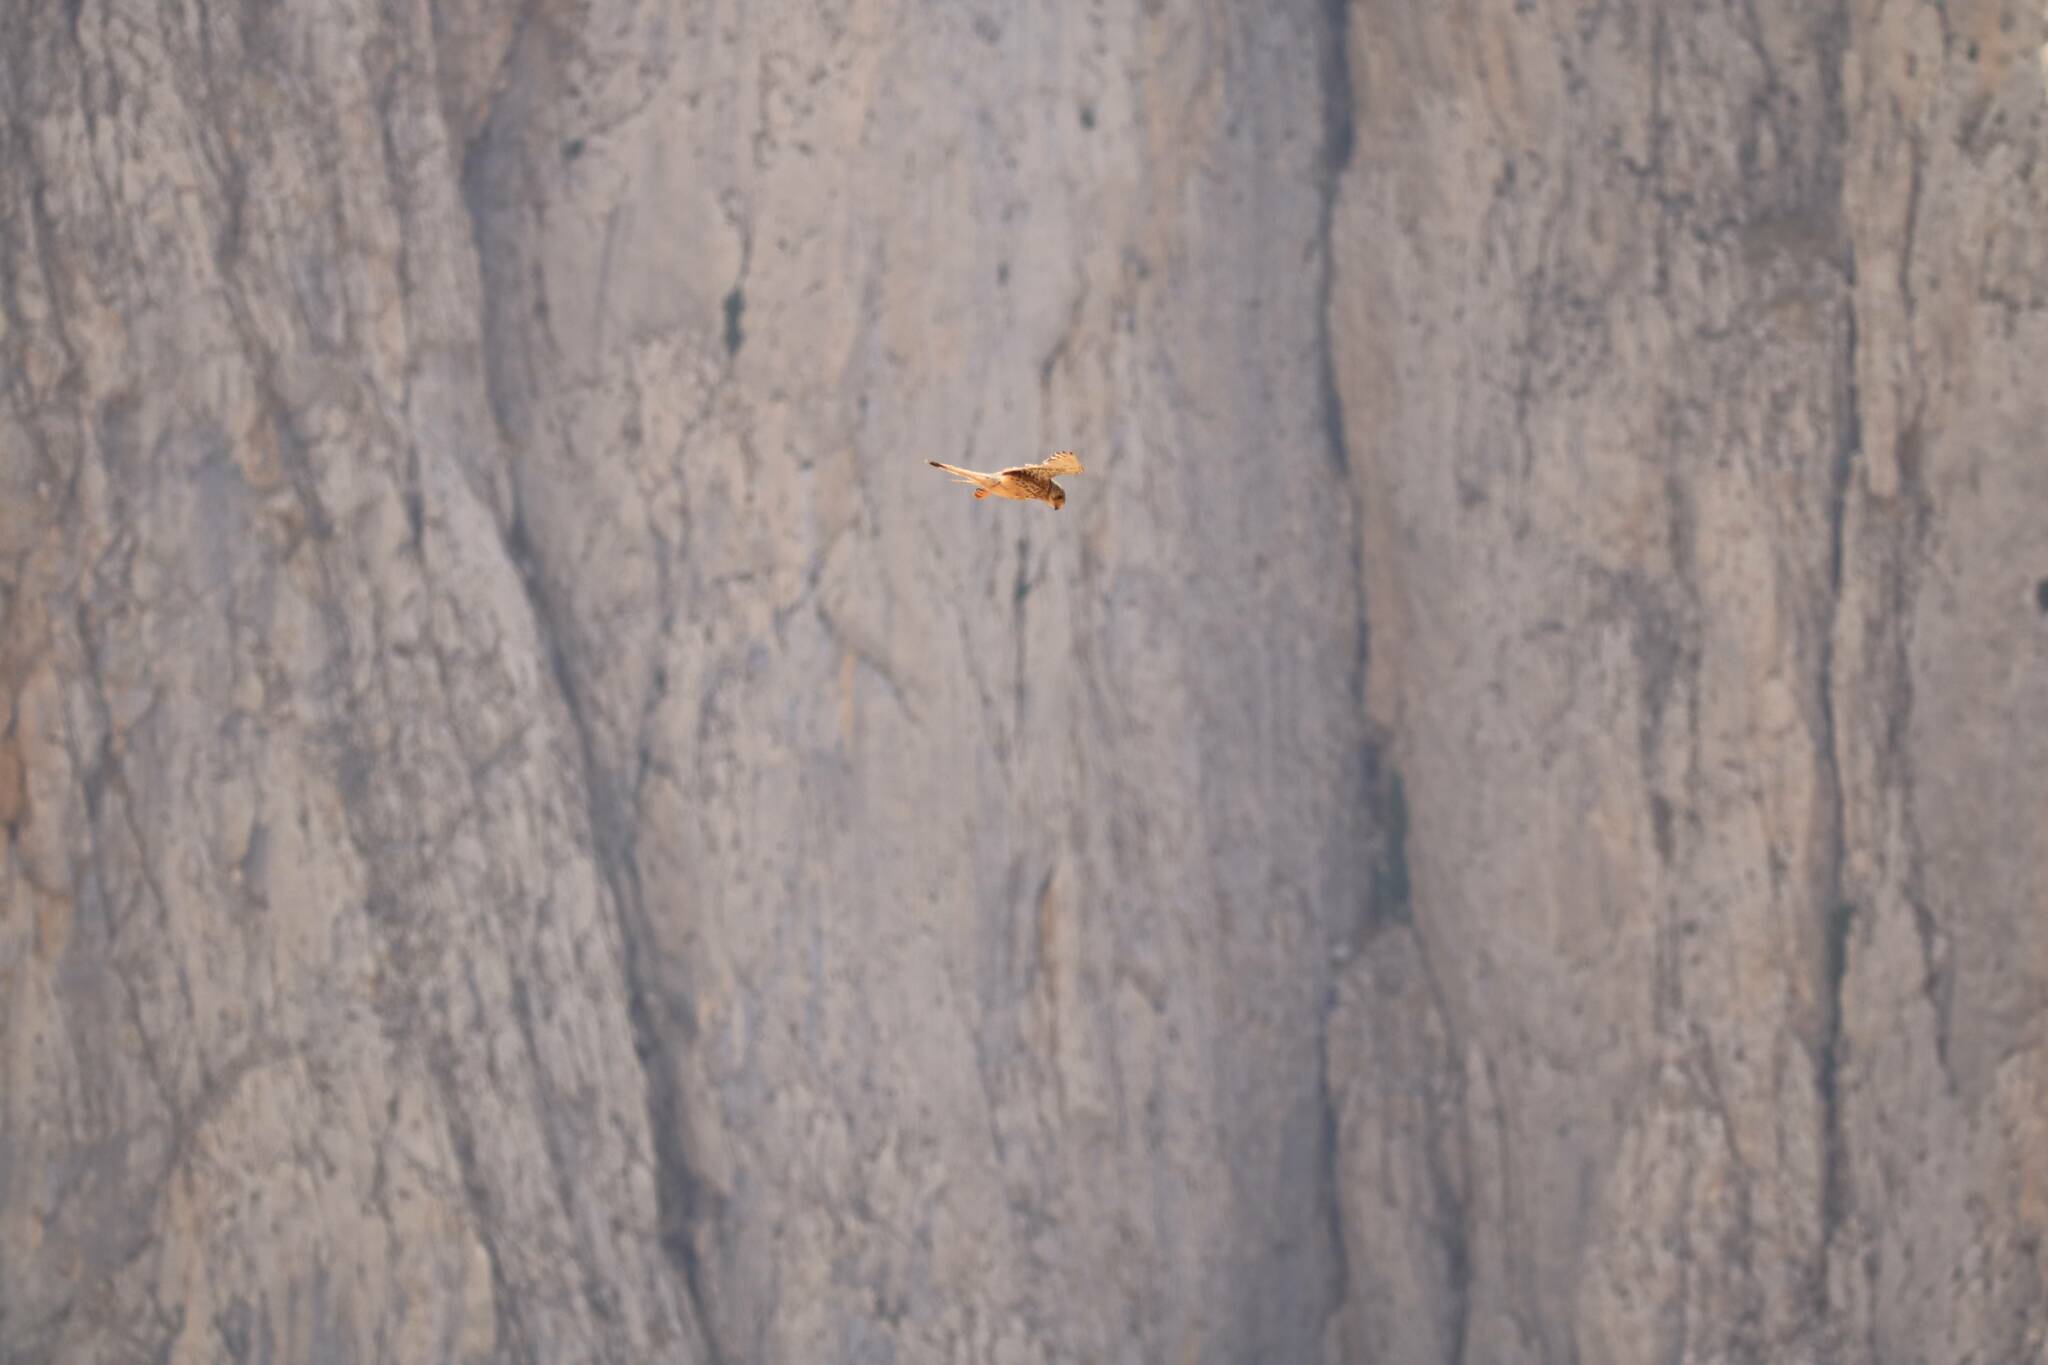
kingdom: Animalia
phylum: Chordata
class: Aves
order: Falconiformes
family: Falconidae
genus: Falco
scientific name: Falco tinnunculus
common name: Common kestrel
